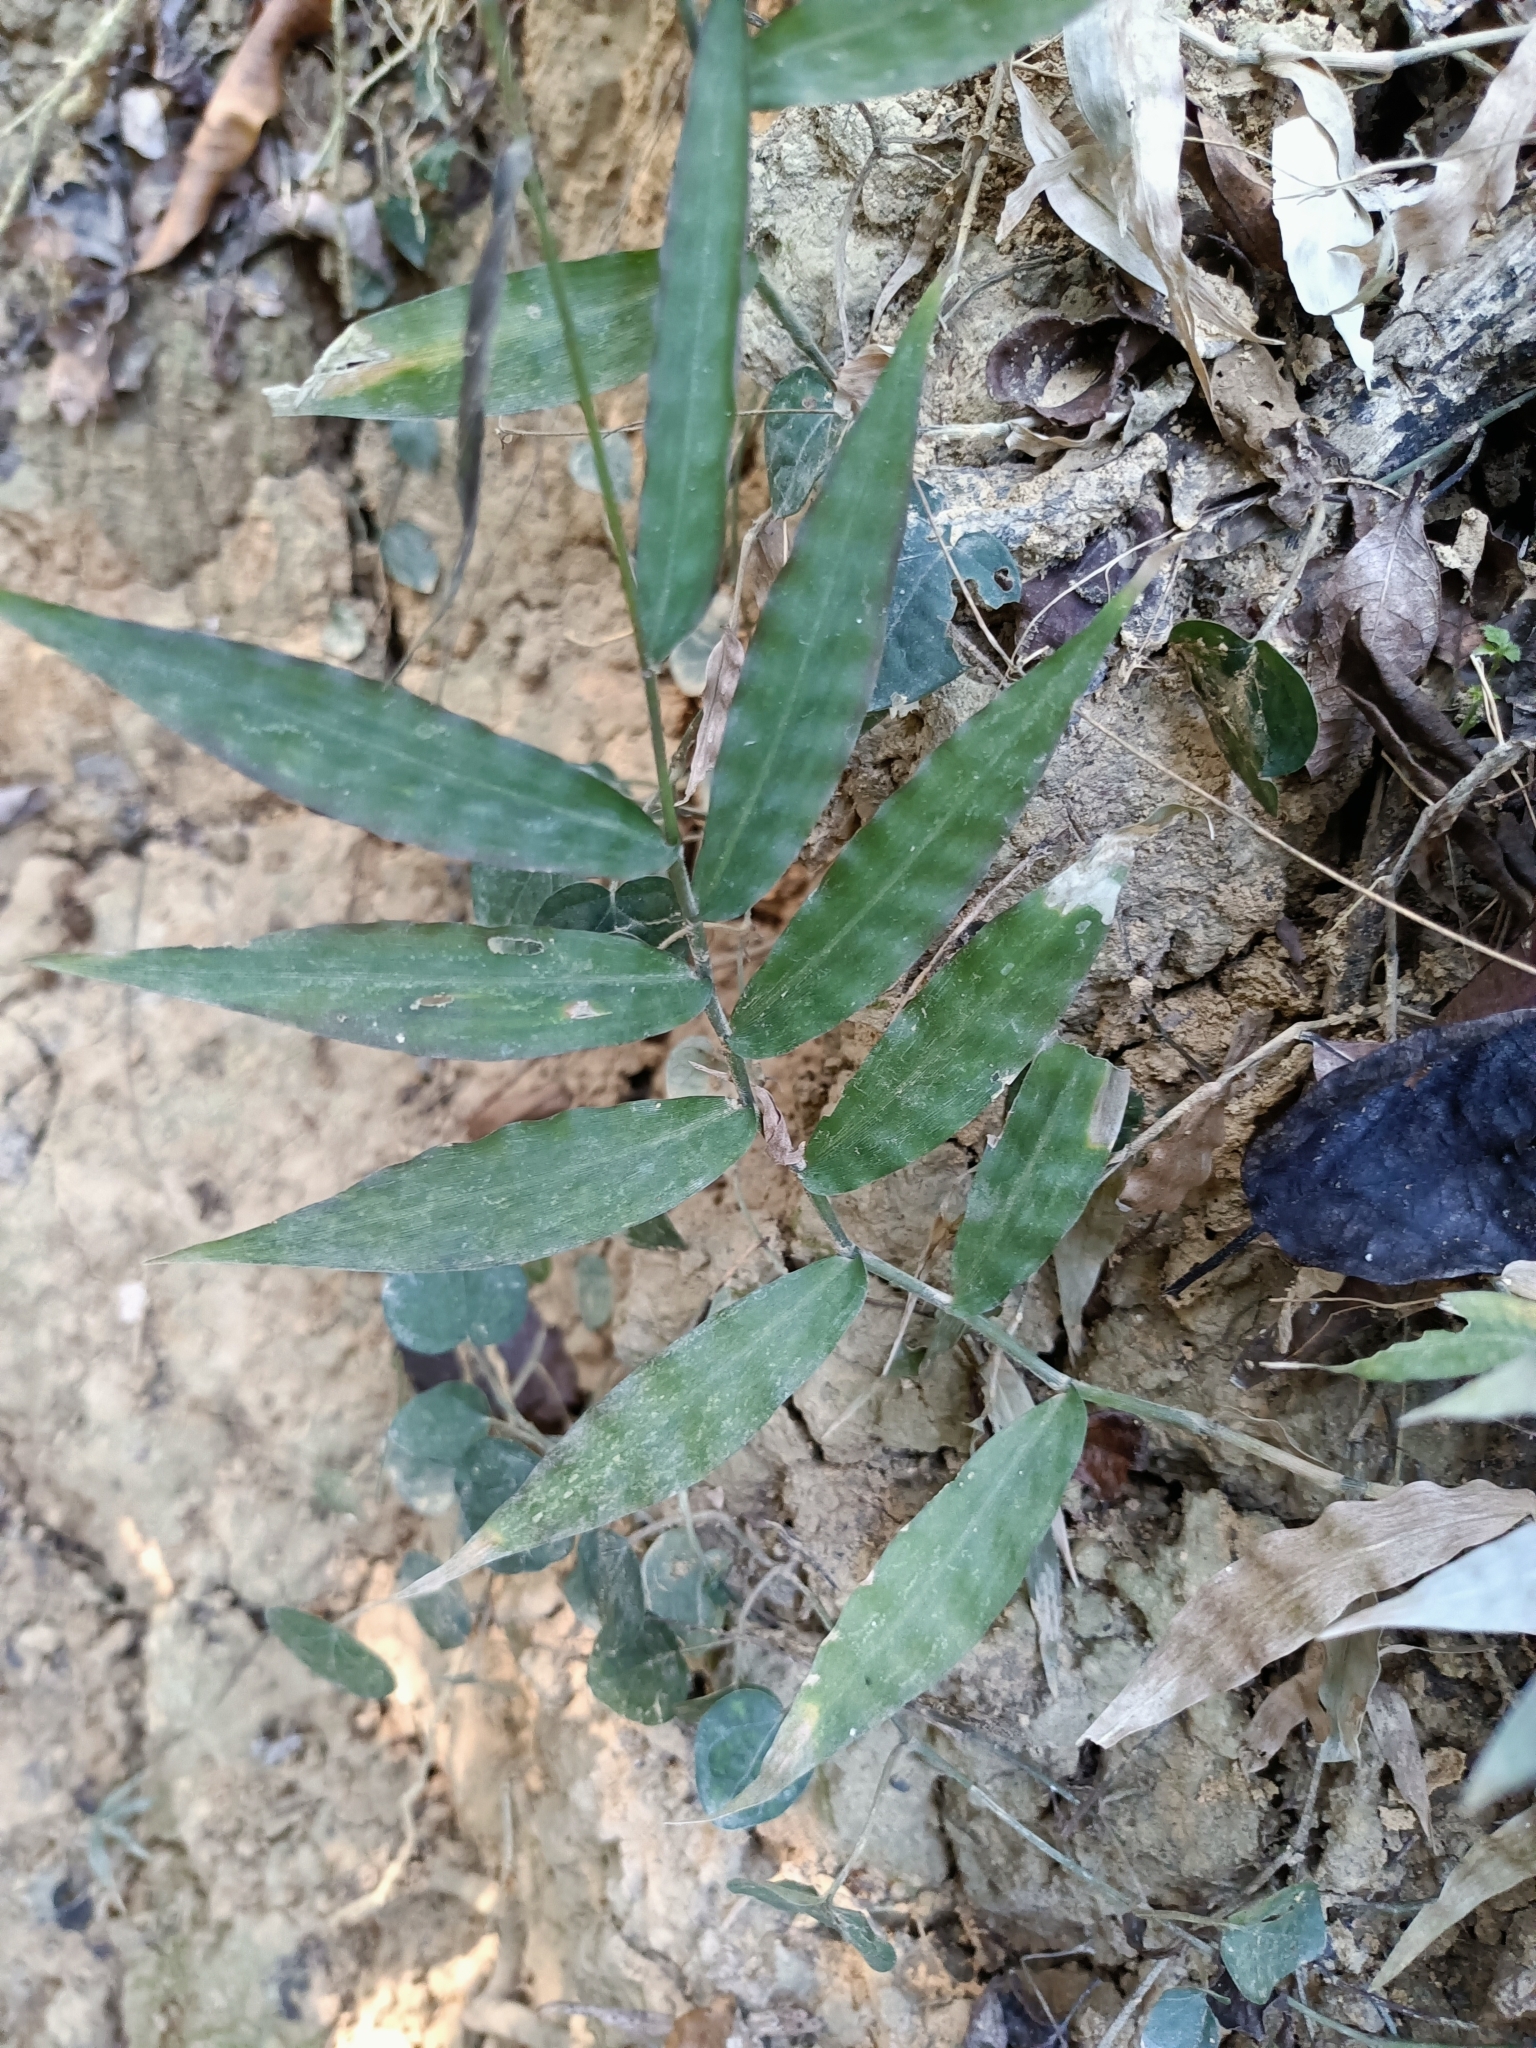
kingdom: Plantae
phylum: Tracheophyta
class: Liliopsida
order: Poales
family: Poaceae
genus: Oplismenus
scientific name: Oplismenus compositus
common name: Running mountain grass
